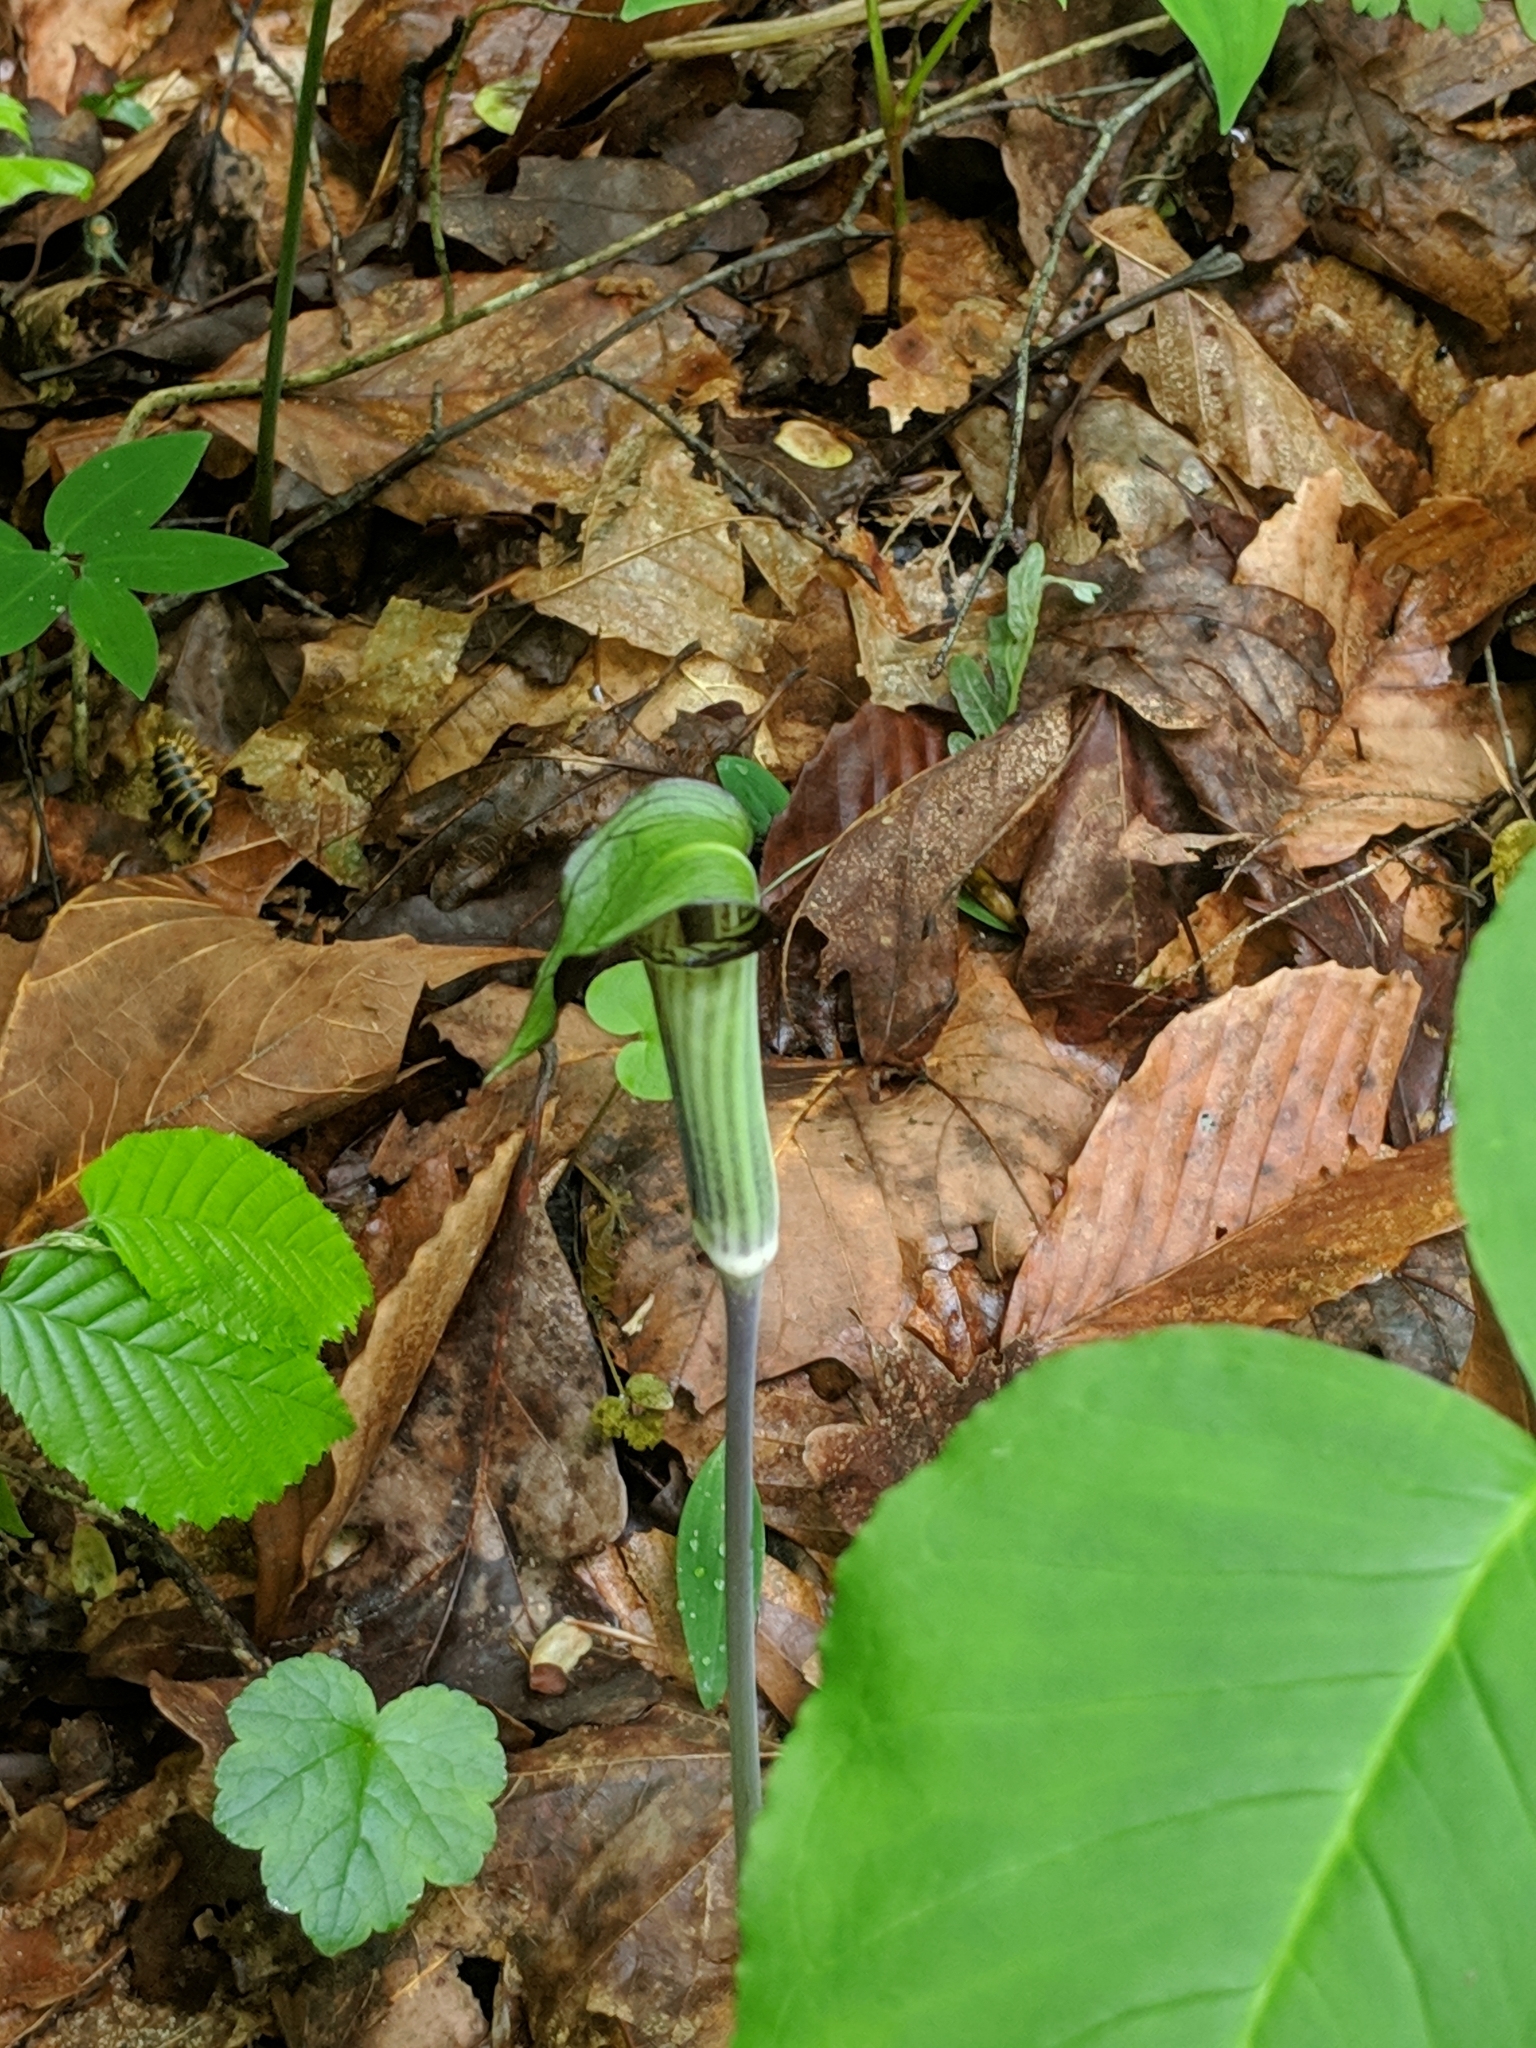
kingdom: Plantae
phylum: Tracheophyta
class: Liliopsida
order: Alismatales
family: Araceae
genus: Arisaema
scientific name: Arisaema triphyllum
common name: Jack-in-the-pulpit
